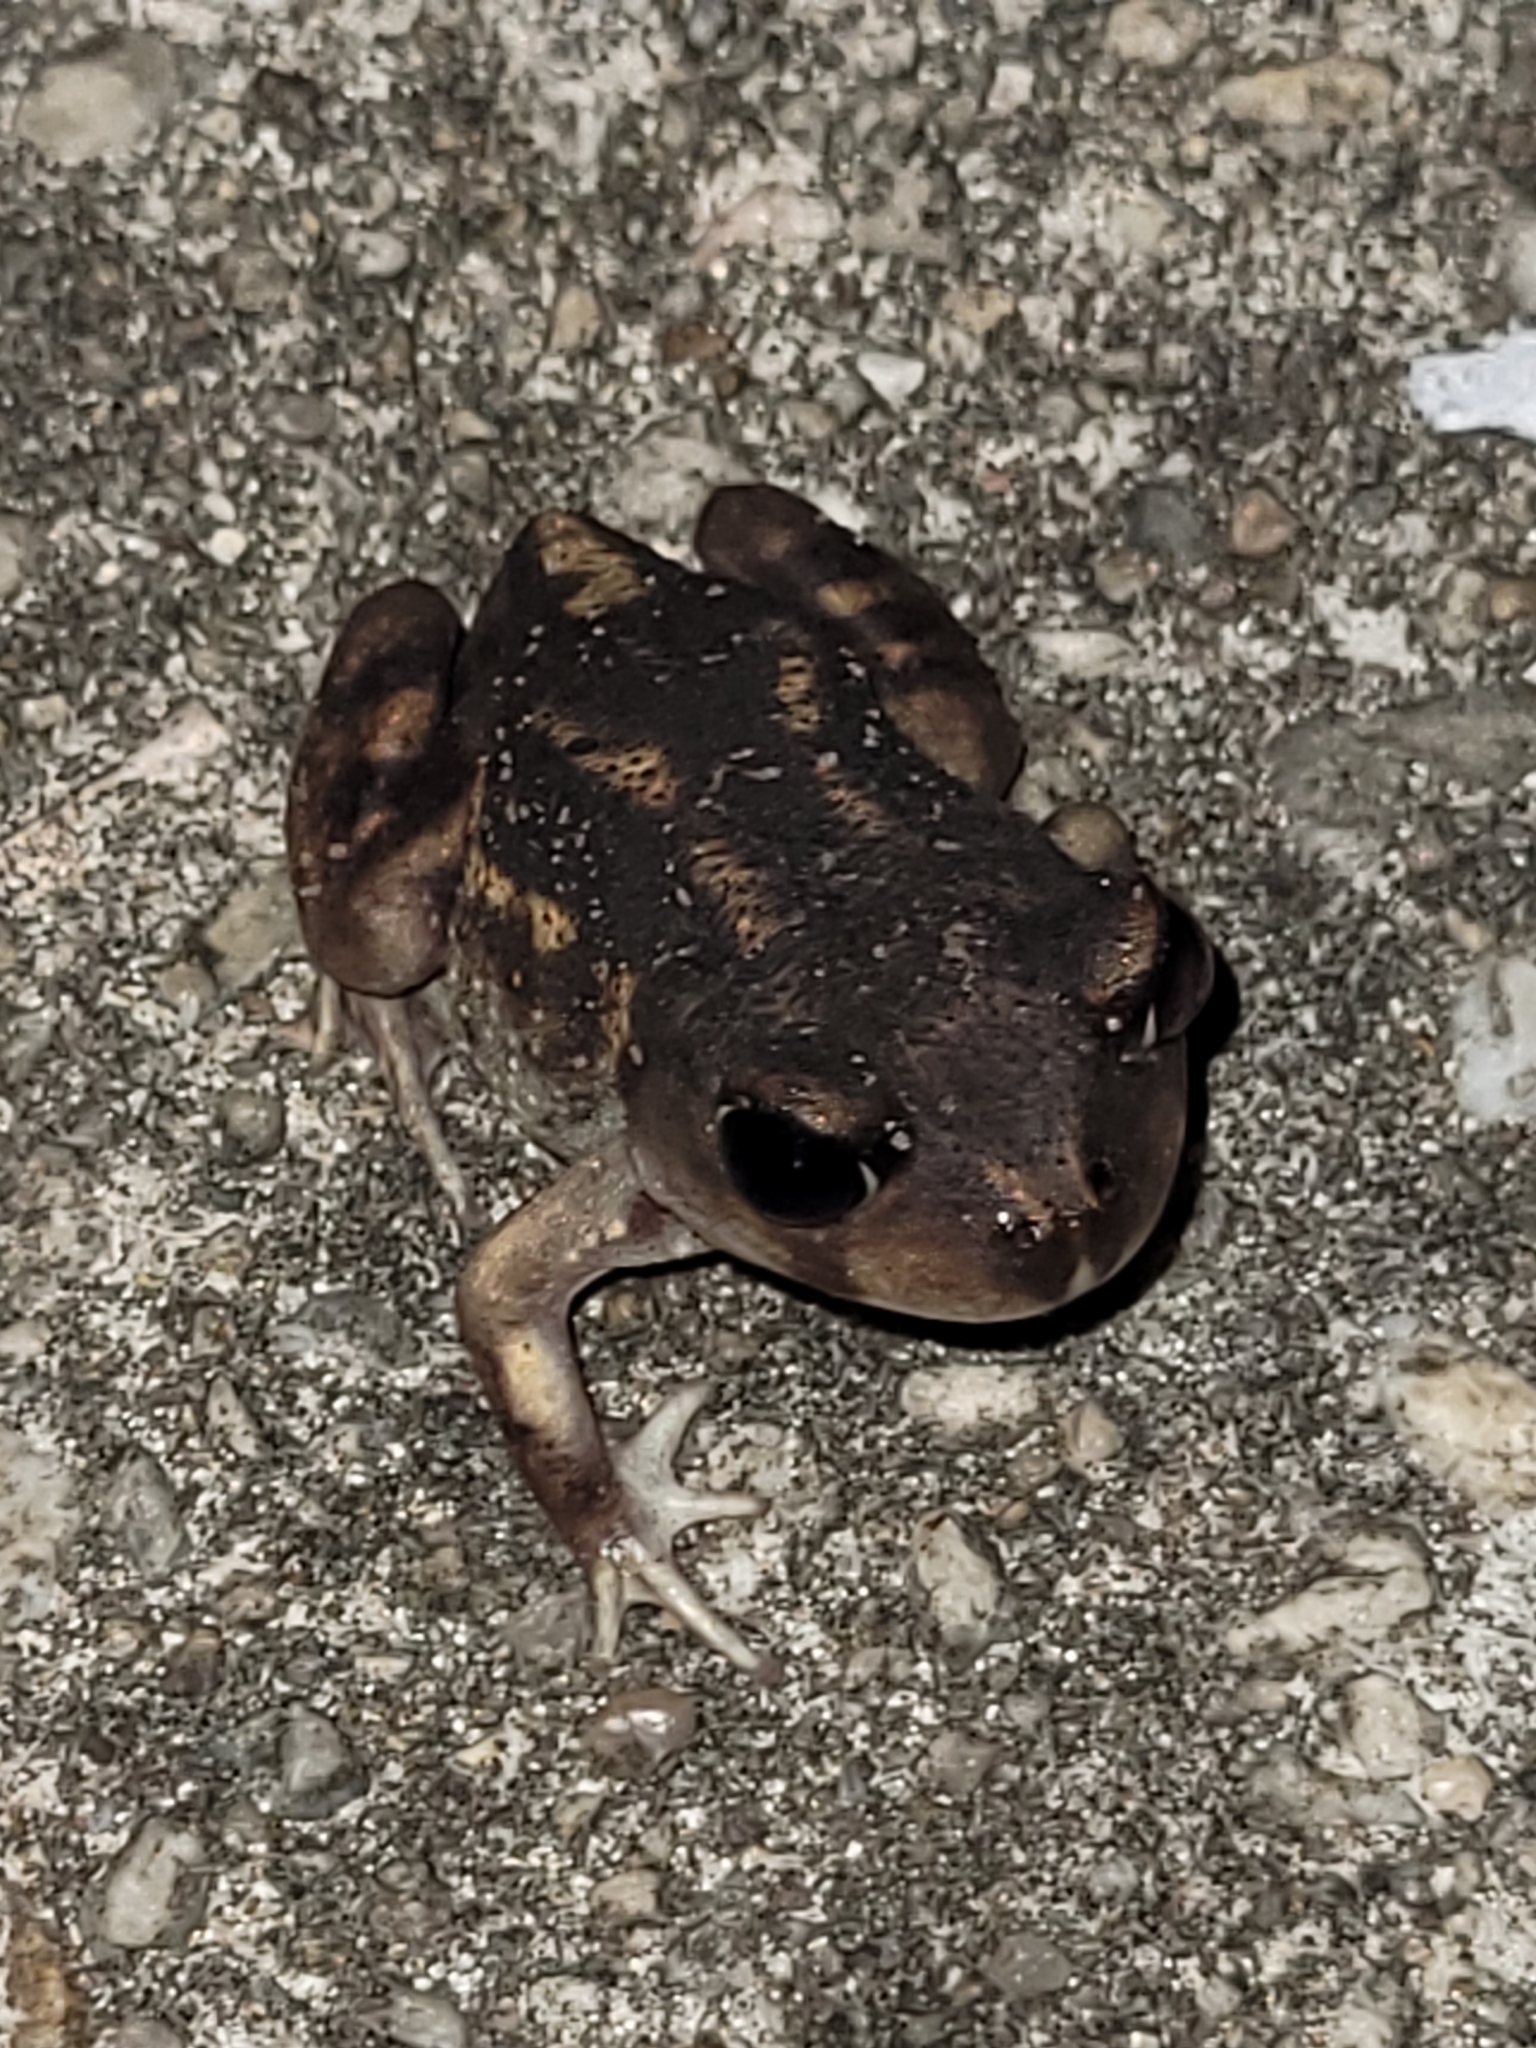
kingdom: Animalia
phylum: Chordata
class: Amphibia
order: Anura
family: Scaphiopodidae
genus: Scaphiopus
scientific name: Scaphiopus holbrookii
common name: Eastern spadefoot toad
